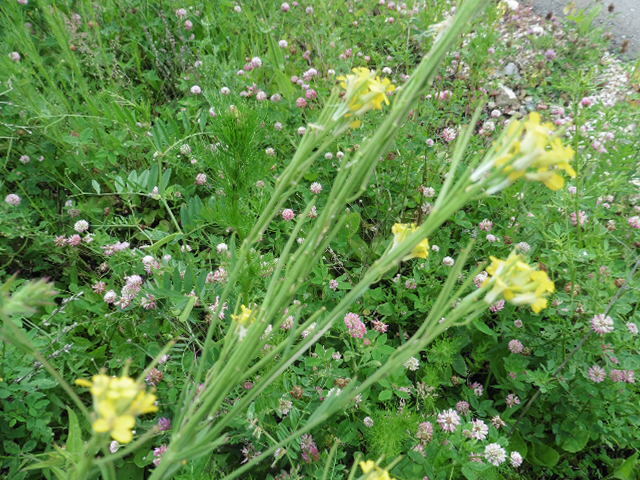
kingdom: Plantae
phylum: Tracheophyta
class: Magnoliopsida
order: Brassicales
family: Brassicaceae
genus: Erysimum
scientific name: Erysimum hieraciifolium
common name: European wallflower
